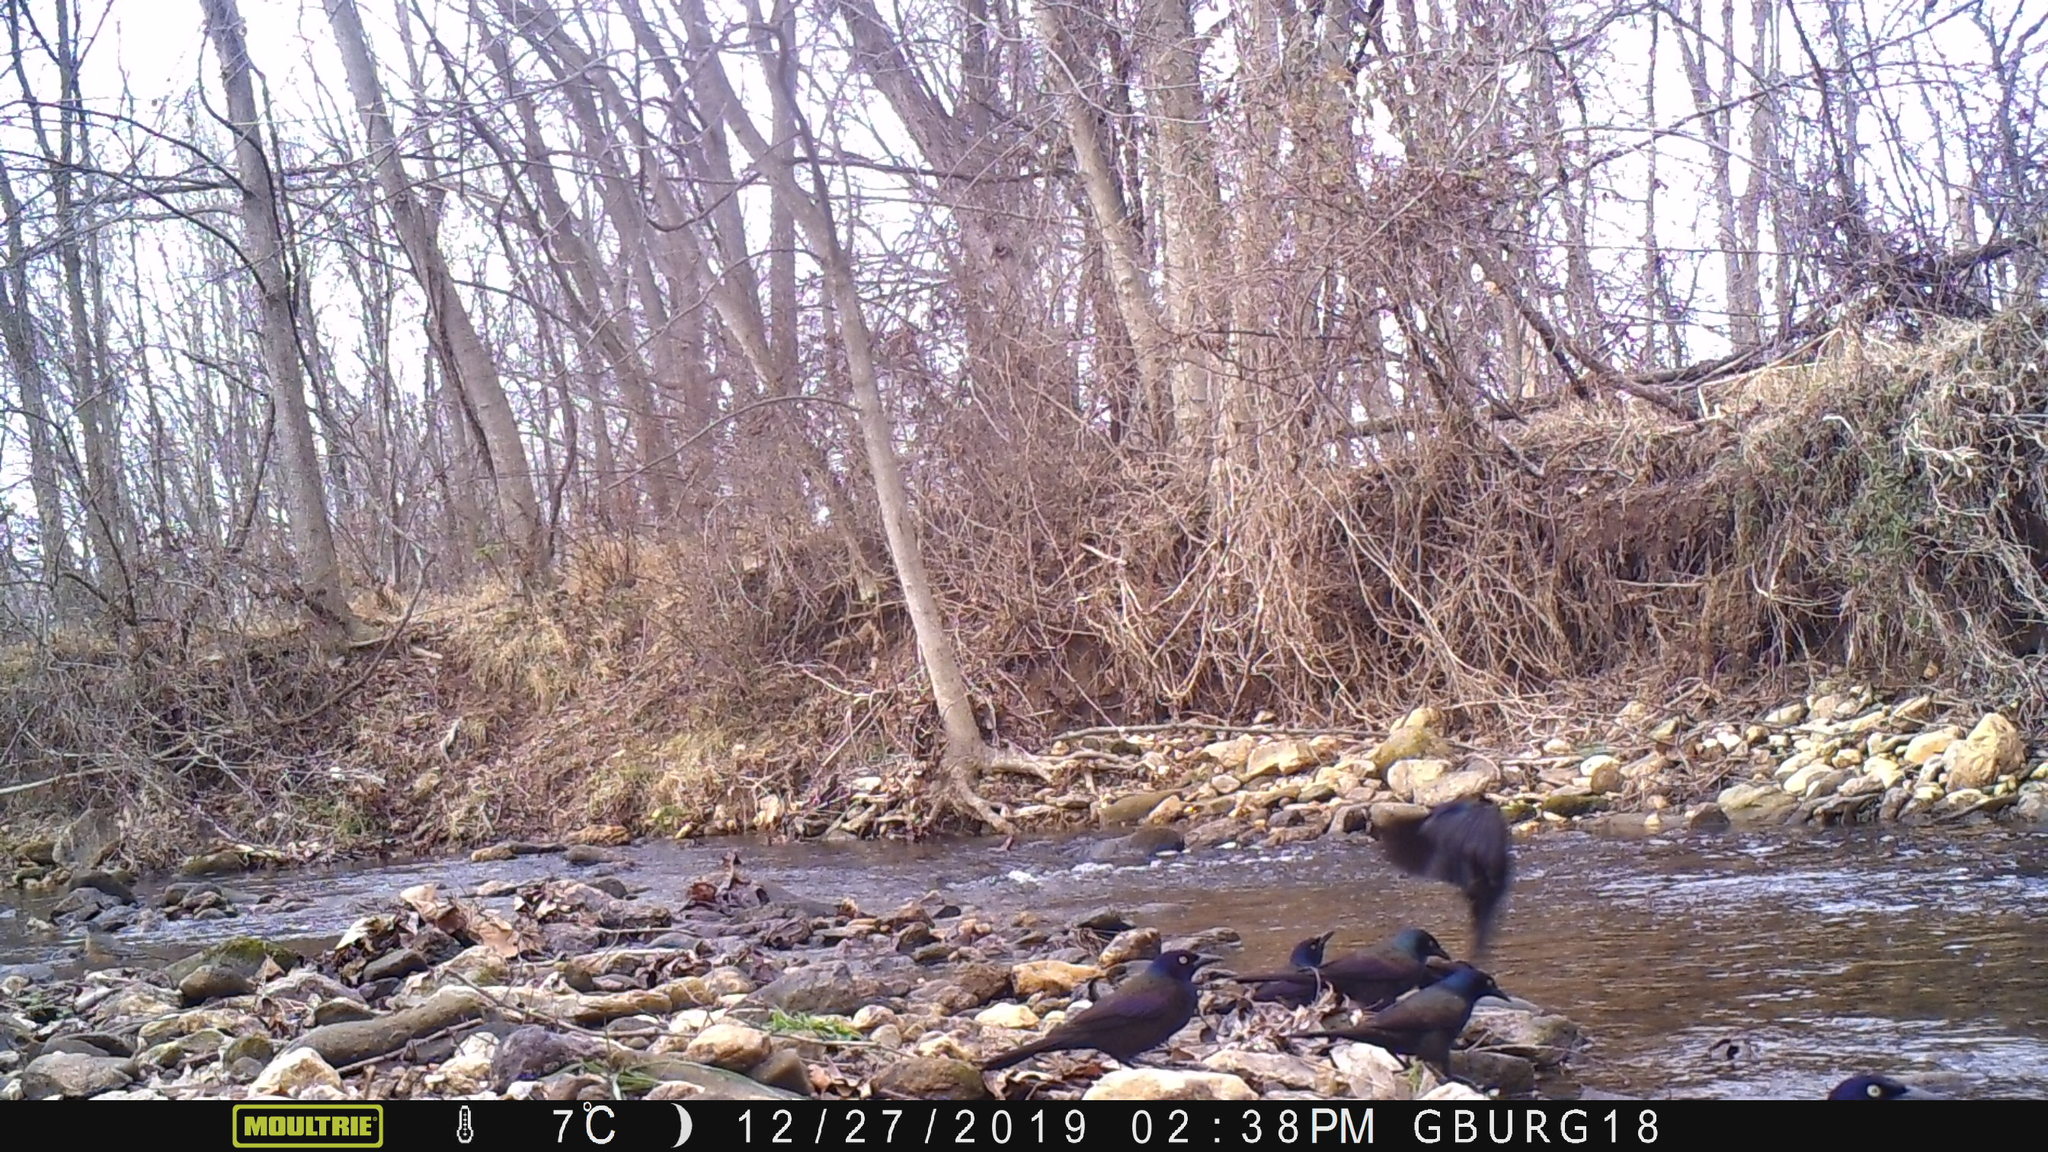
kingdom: Animalia
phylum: Chordata
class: Aves
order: Passeriformes
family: Icteridae
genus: Quiscalus
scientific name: Quiscalus quiscula
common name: Common grackle
